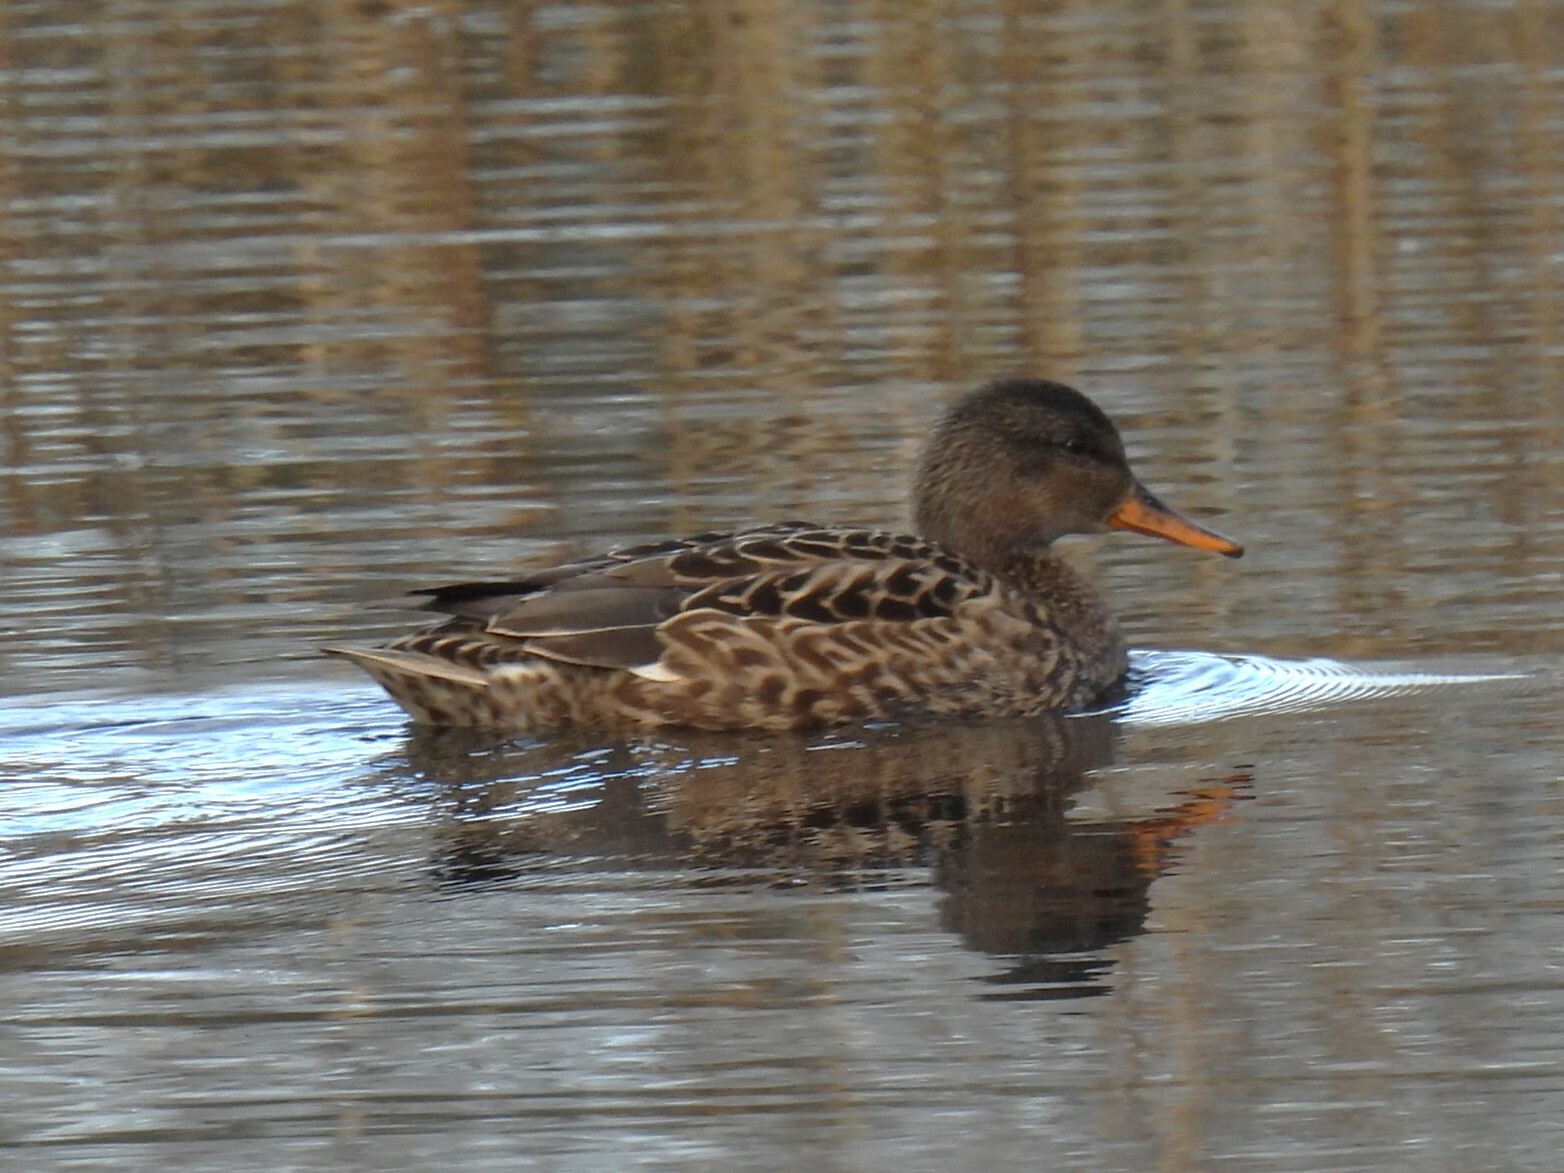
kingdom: Animalia
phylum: Chordata
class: Aves
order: Anseriformes
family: Anatidae
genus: Mareca
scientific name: Mareca strepera
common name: Gadwall
